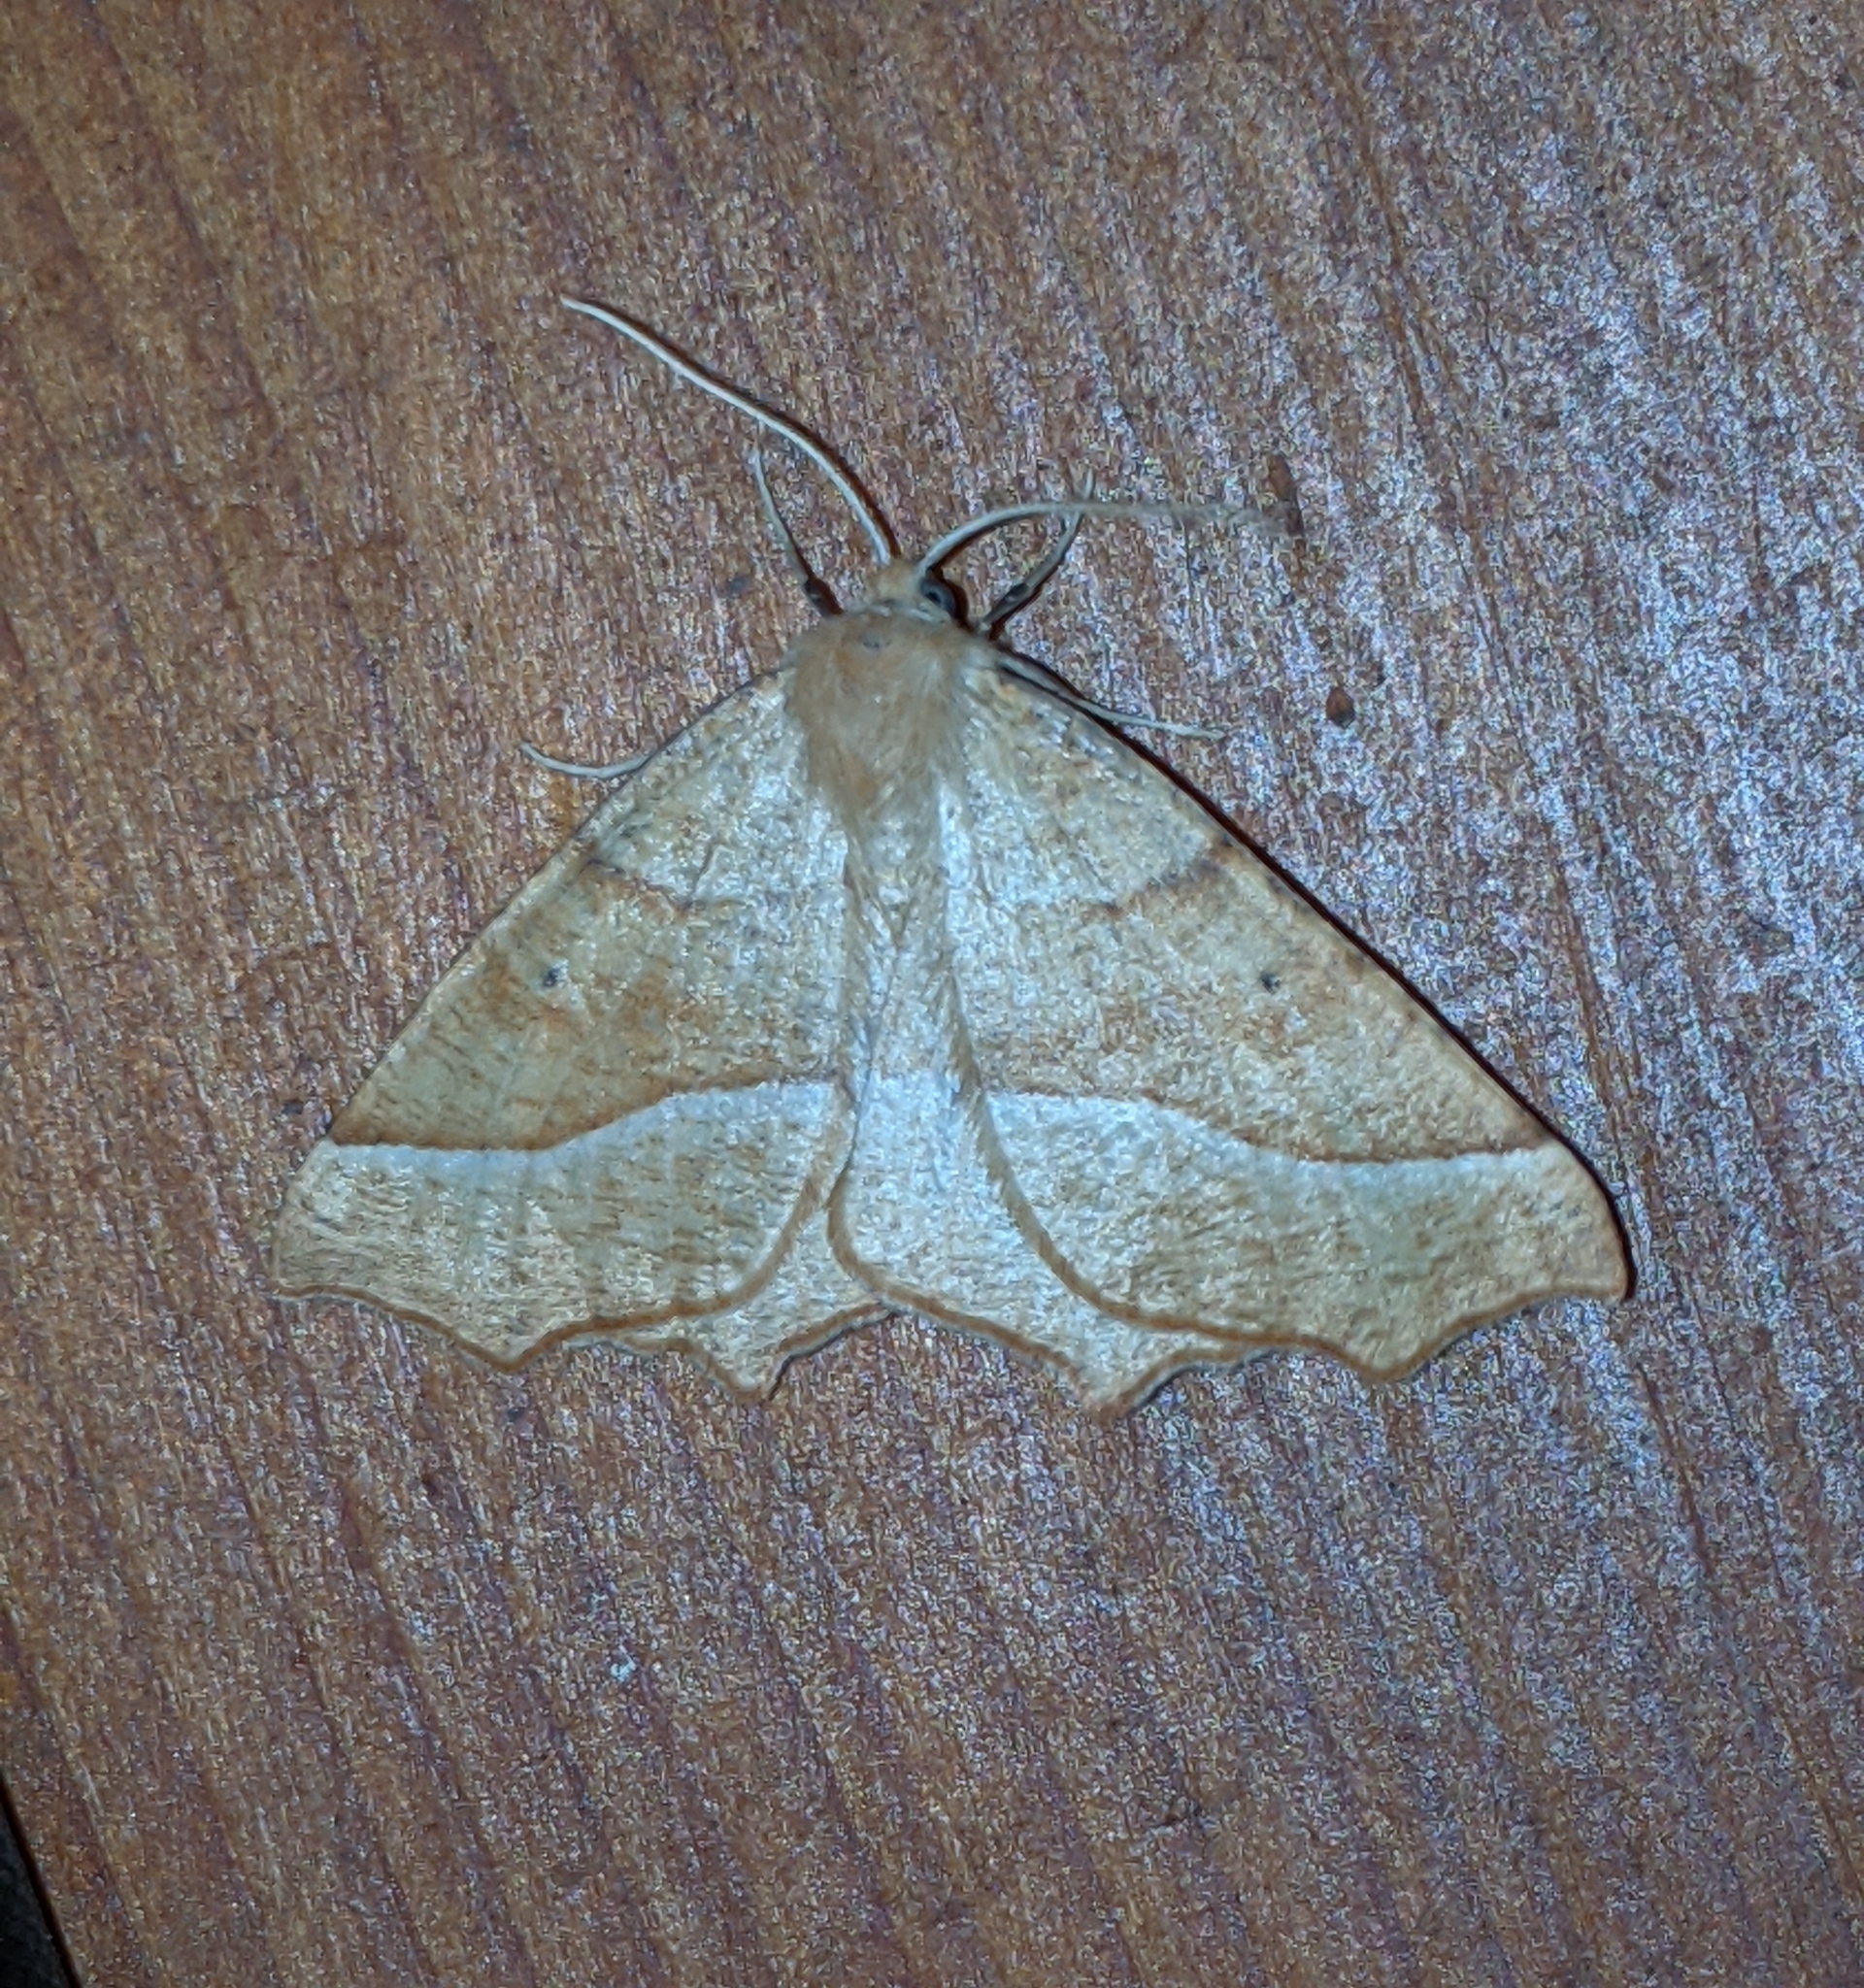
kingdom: Animalia
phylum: Arthropoda
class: Insecta
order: Lepidoptera
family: Geometridae
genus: Synaxis
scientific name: Synaxis jubararia
